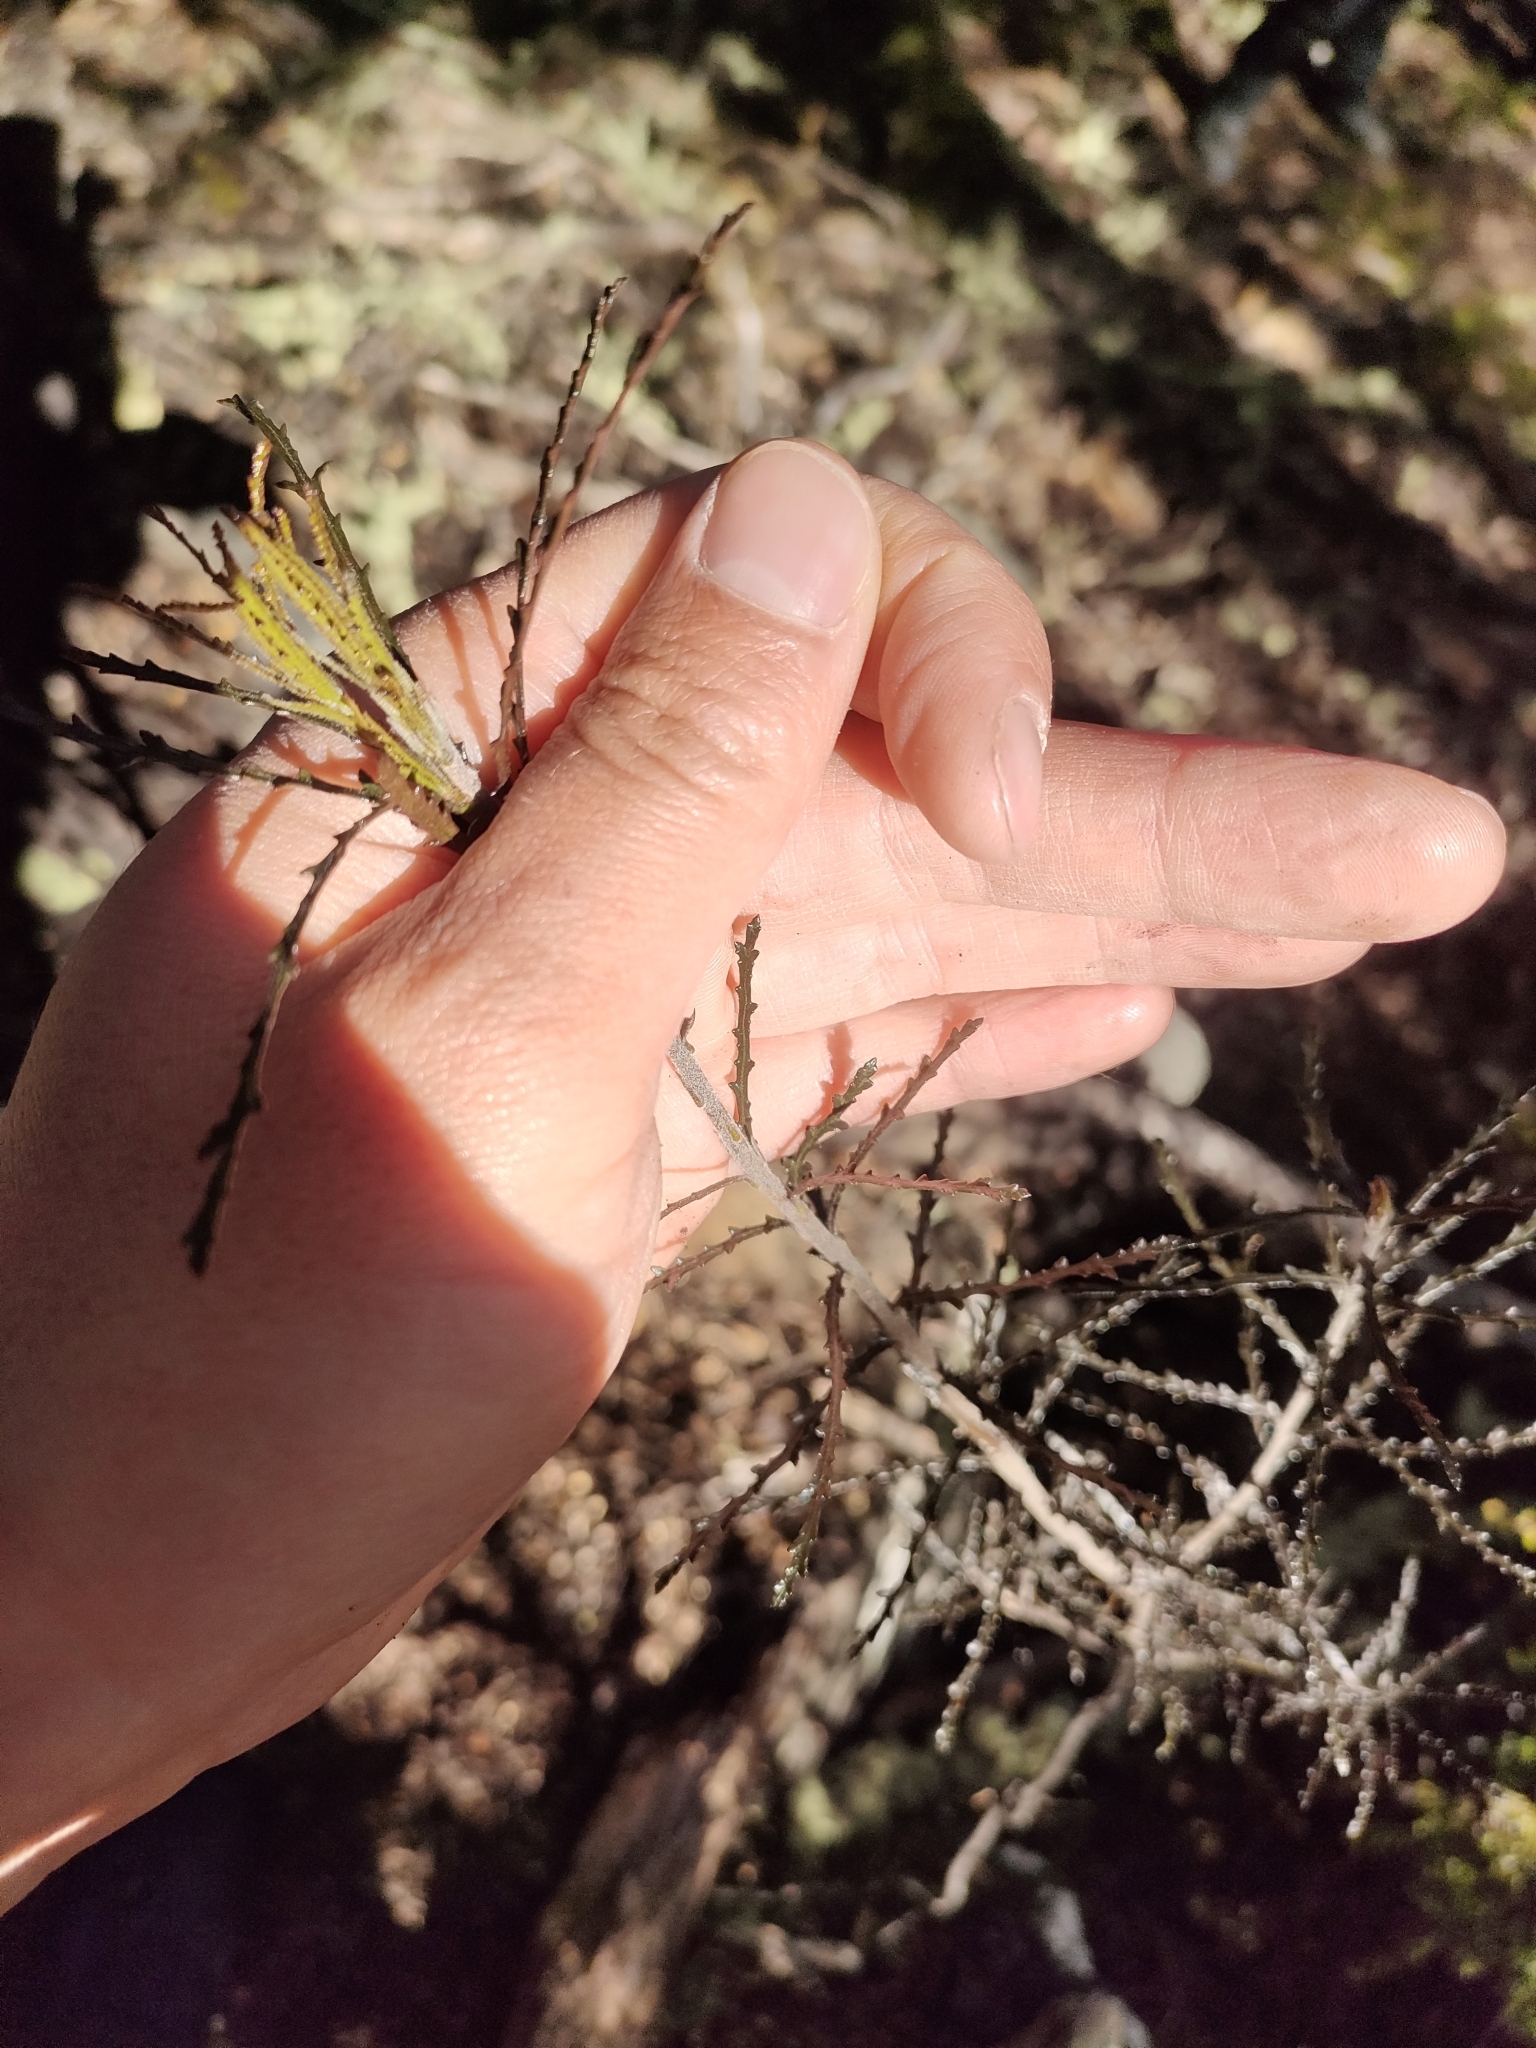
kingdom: Plantae
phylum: Tracheophyta
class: Magnoliopsida
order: Apiales
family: Pittosporaceae
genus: Pittosporum
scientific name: Pittosporum patulum
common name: Pitpat
